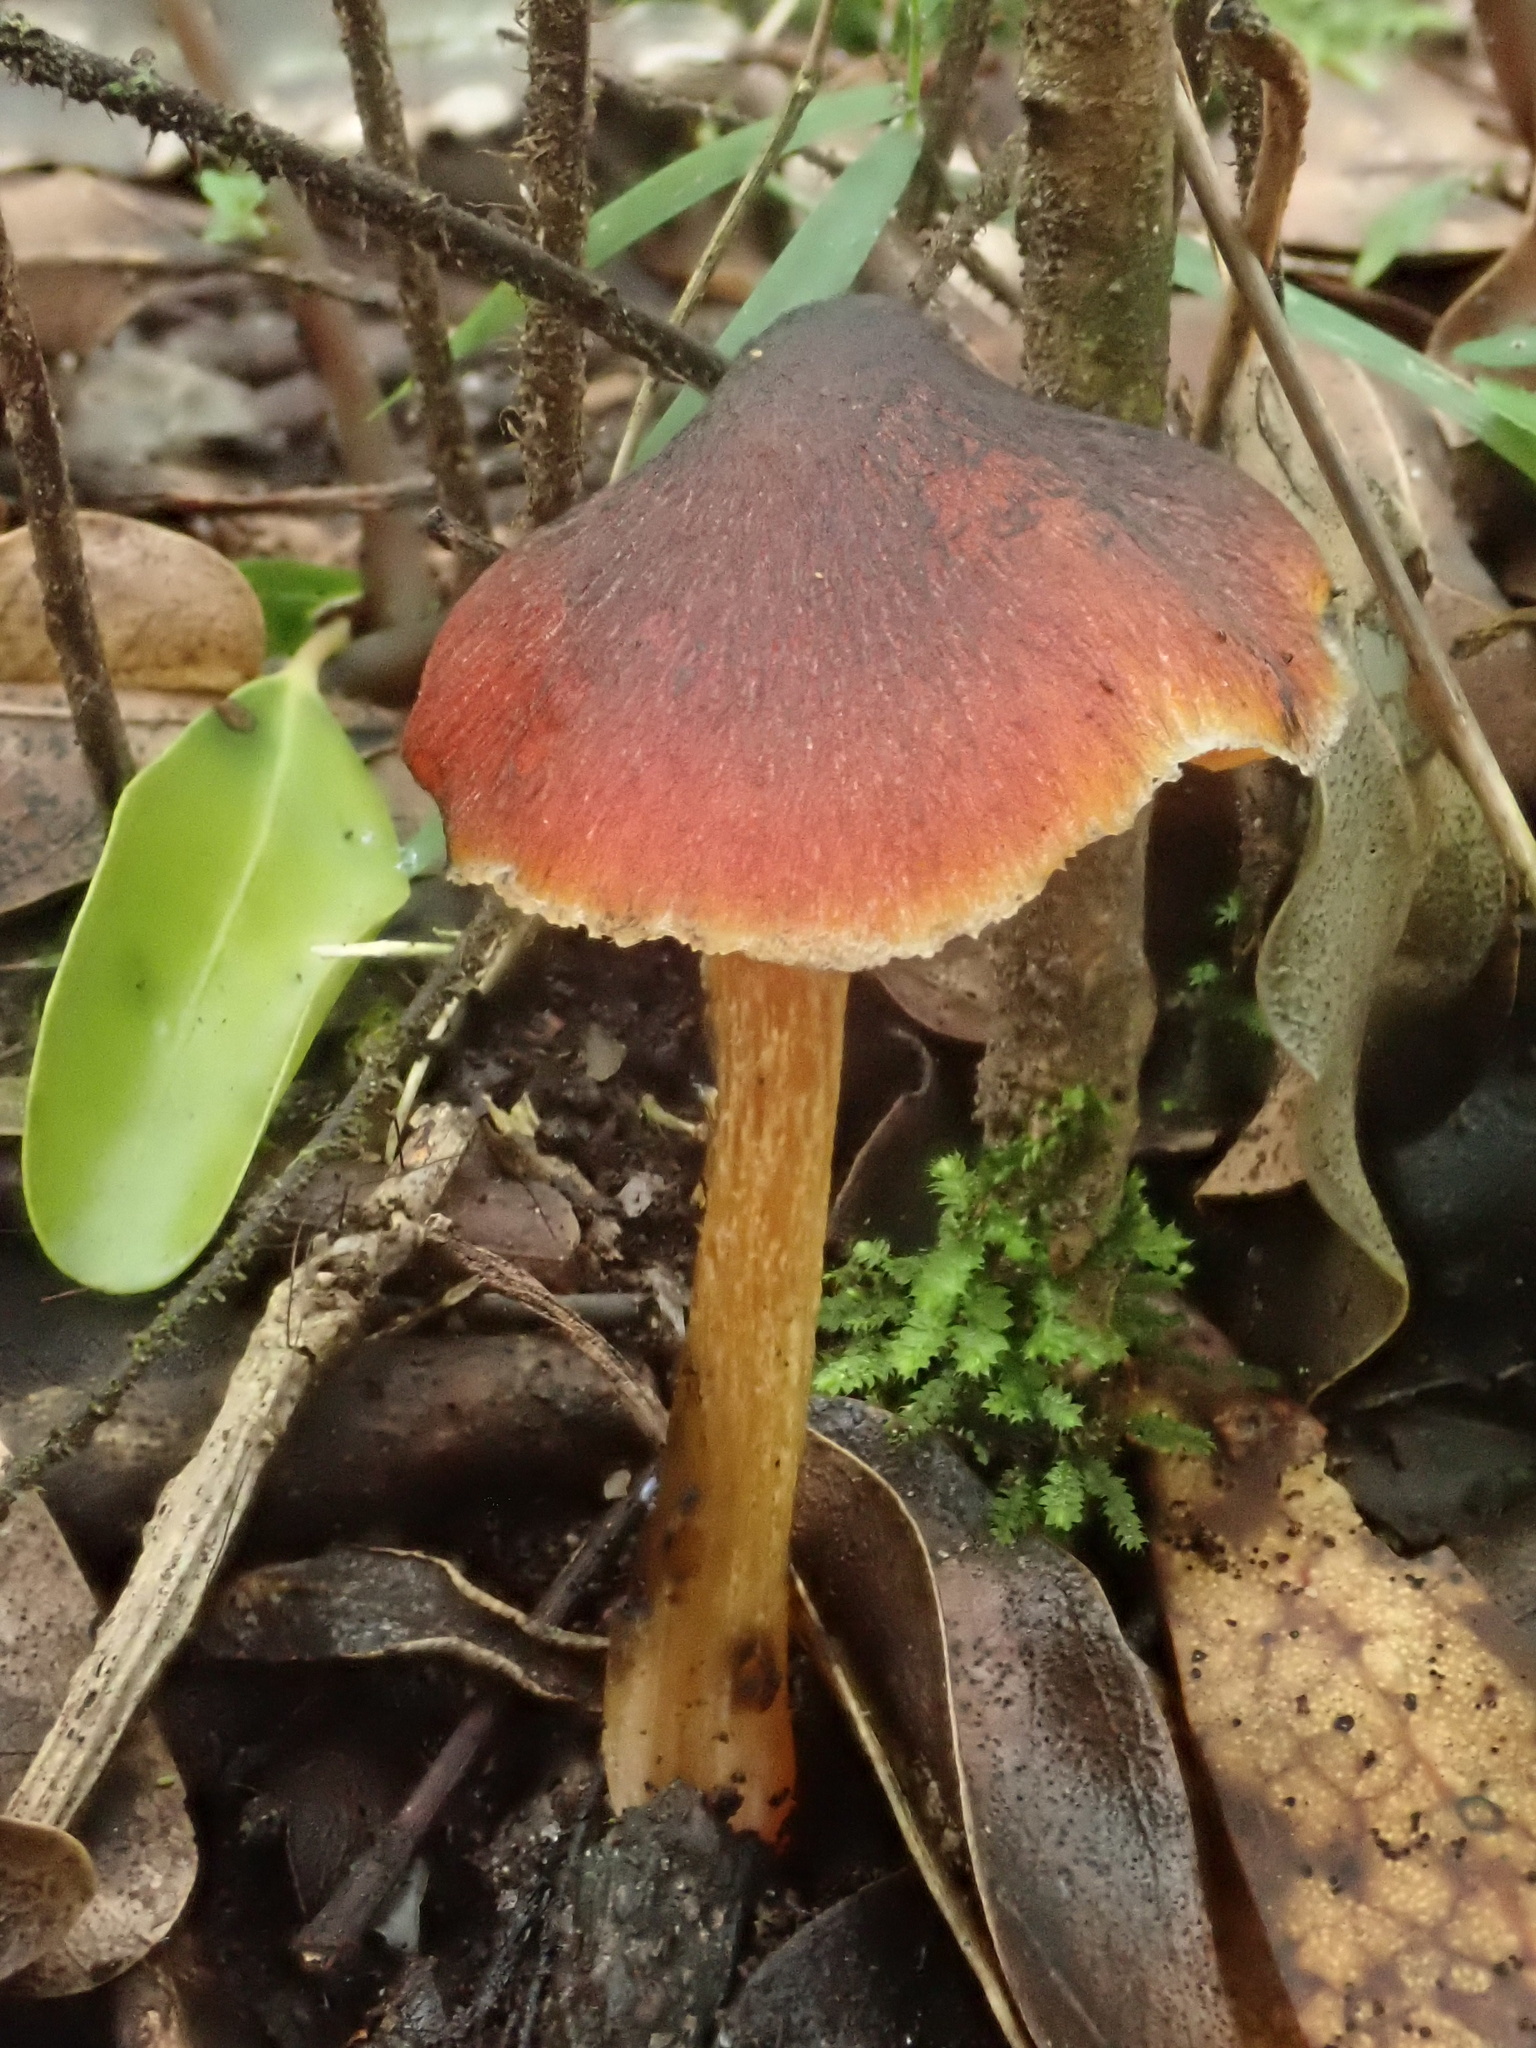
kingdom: Fungi
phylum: Basidiomycota
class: Agaricomycetes
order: Agaricales
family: Hygrophoraceae
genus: Hygrocybe
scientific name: Hygrocybe astatogala
